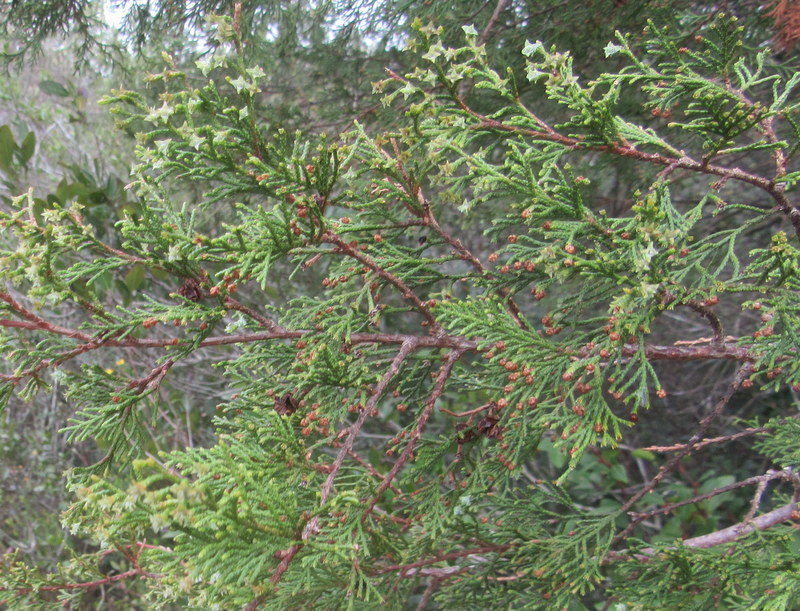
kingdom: Plantae
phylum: Tracheophyta
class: Pinopsida
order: Pinales
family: Cupressaceae
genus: Chamaecyparis
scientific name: Chamaecyparis thyoides
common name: Atlantic white cedar
